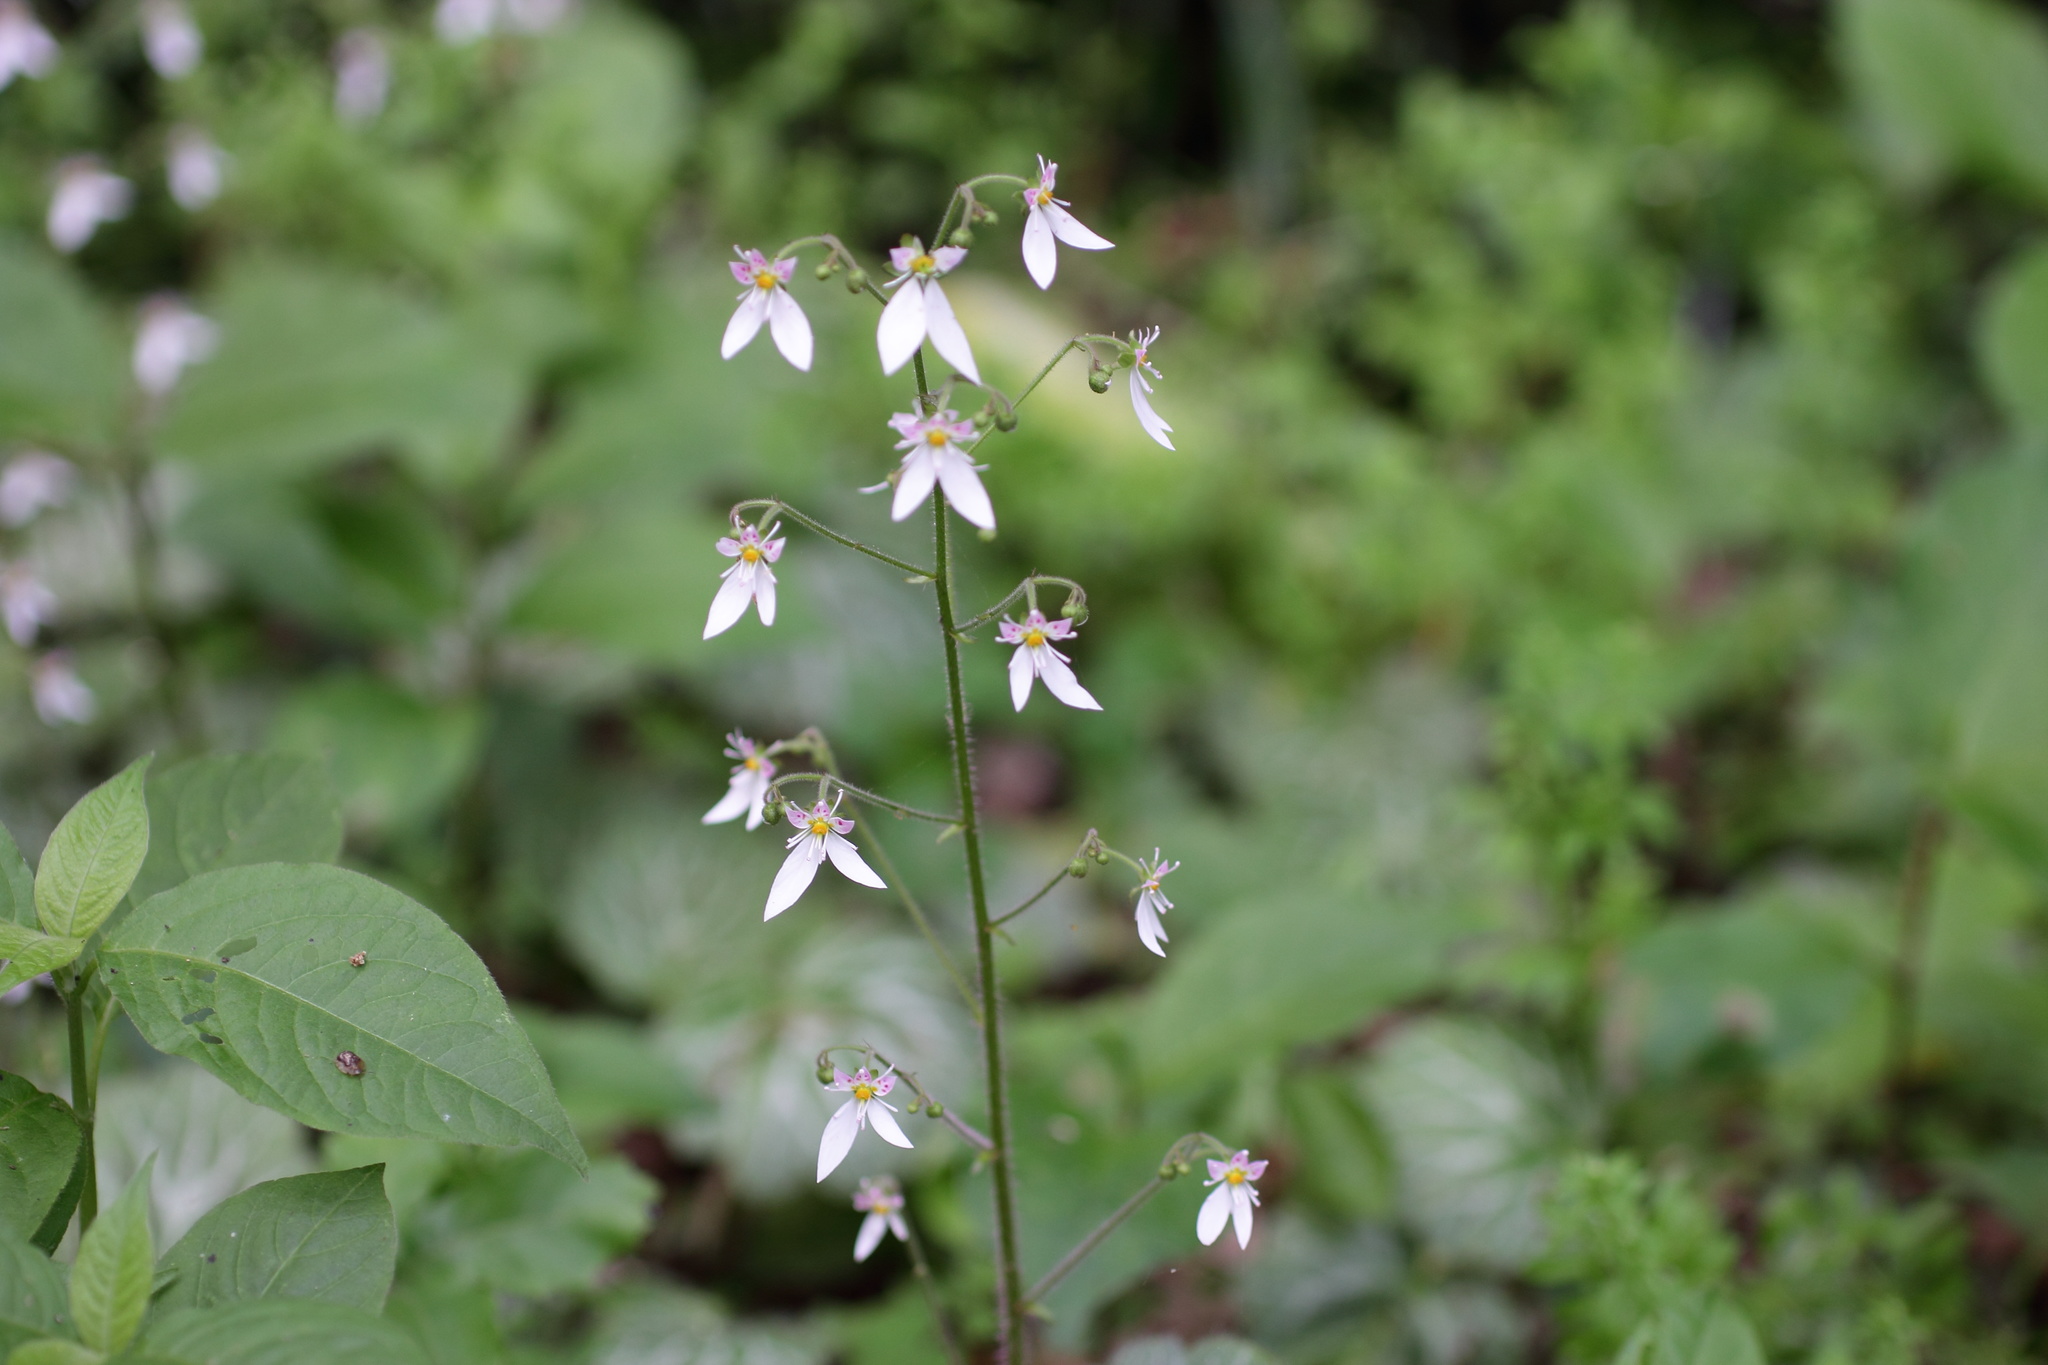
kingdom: Plantae
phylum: Tracheophyta
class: Magnoliopsida
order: Saxifragales
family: Saxifragaceae
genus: Saxifraga
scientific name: Saxifraga stolonifera
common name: Creeping saxifrage
